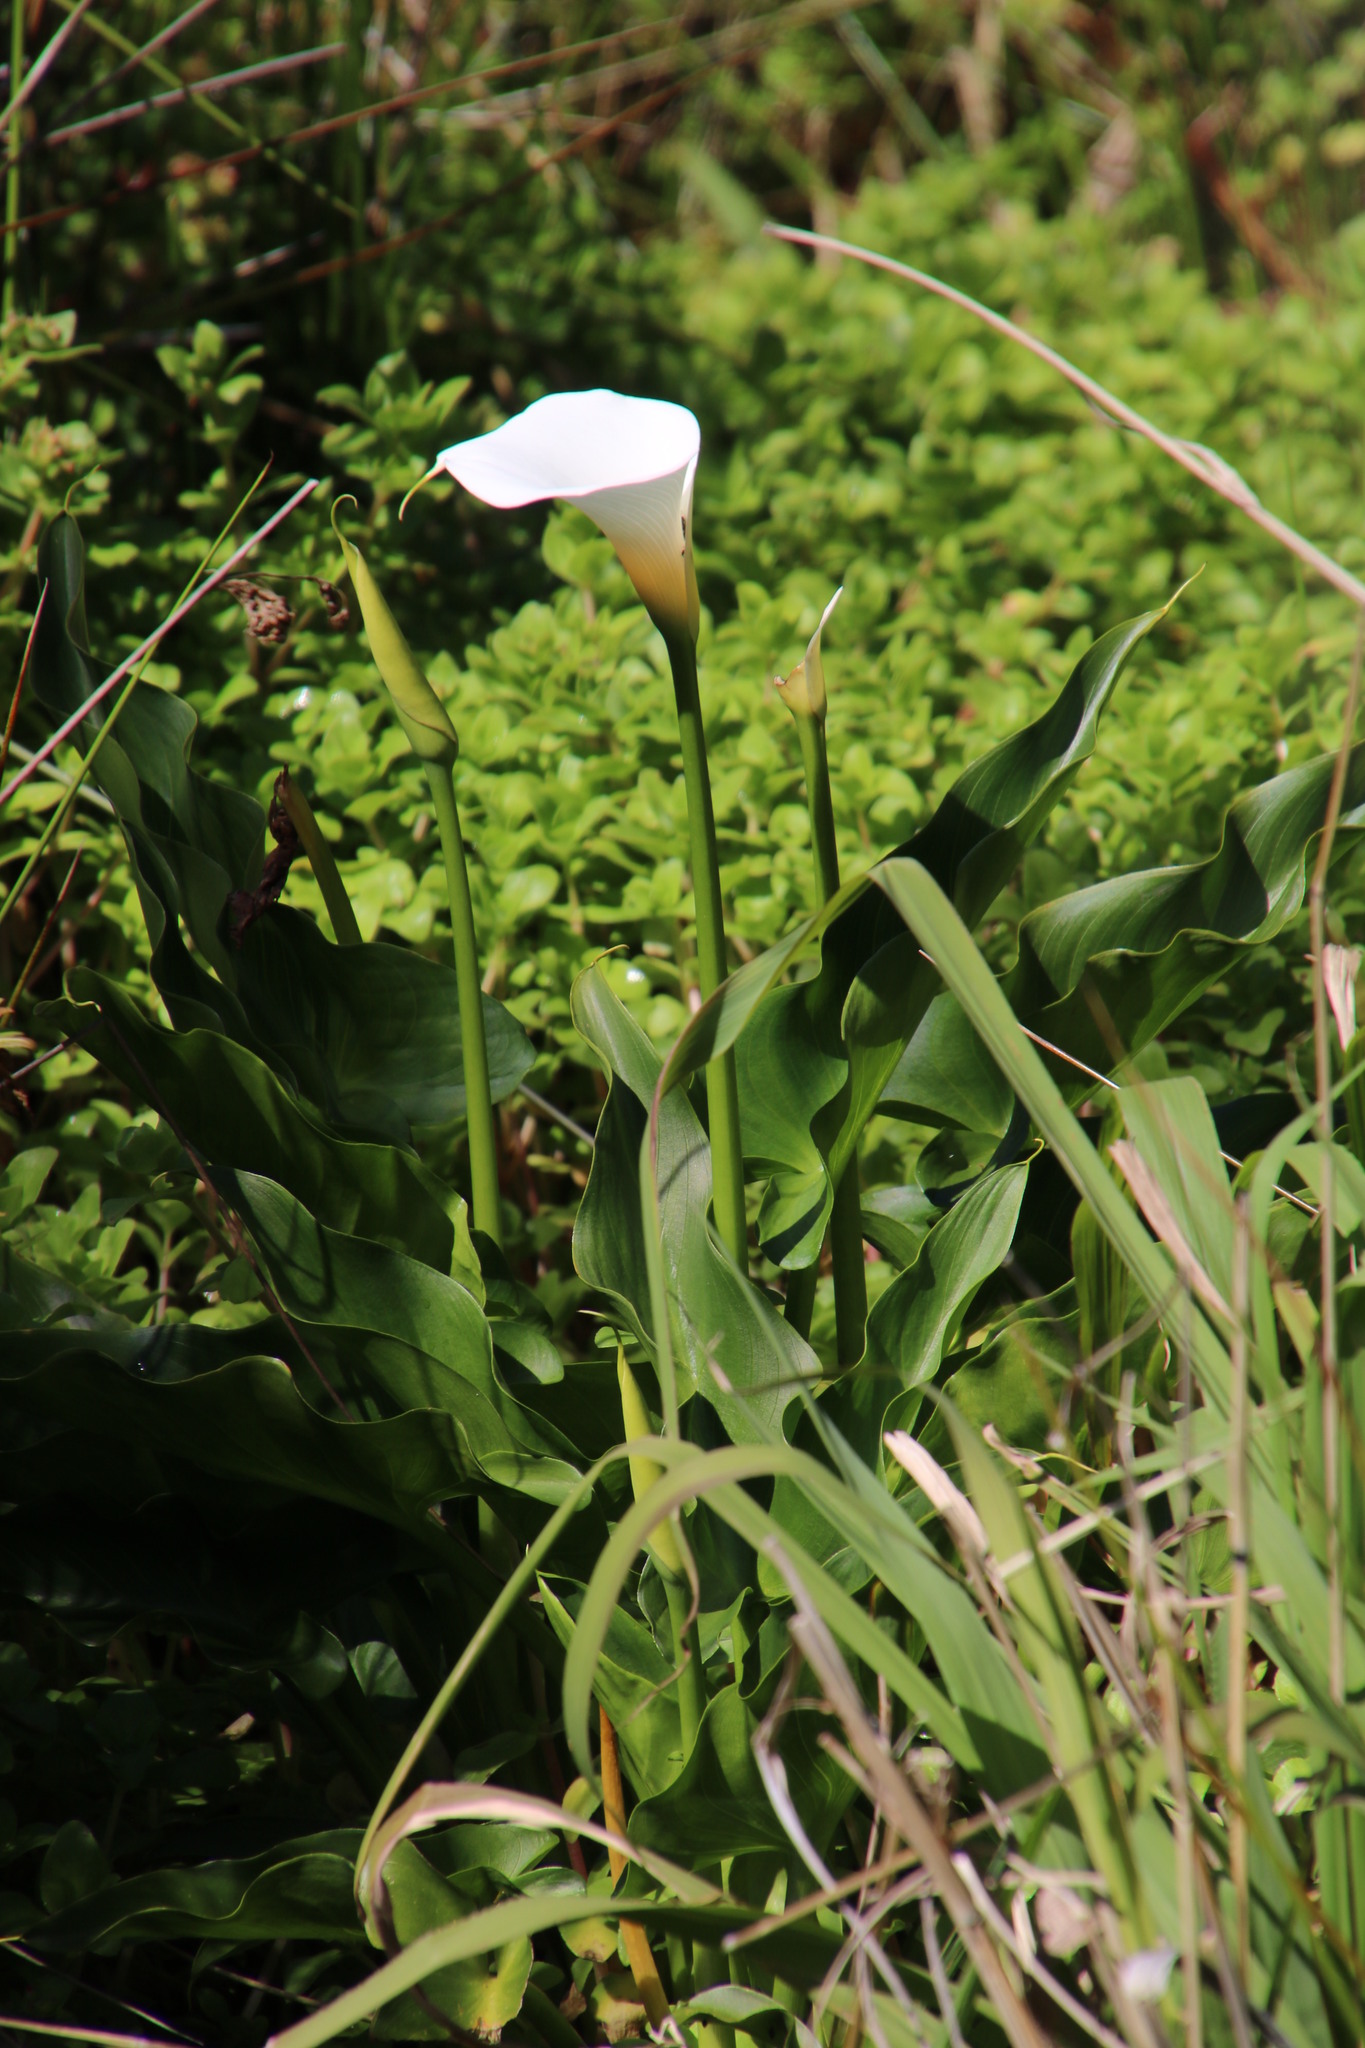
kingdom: Plantae
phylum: Tracheophyta
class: Liliopsida
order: Alismatales
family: Araceae
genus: Zantedeschia
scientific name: Zantedeschia aethiopica
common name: Altar-lily
